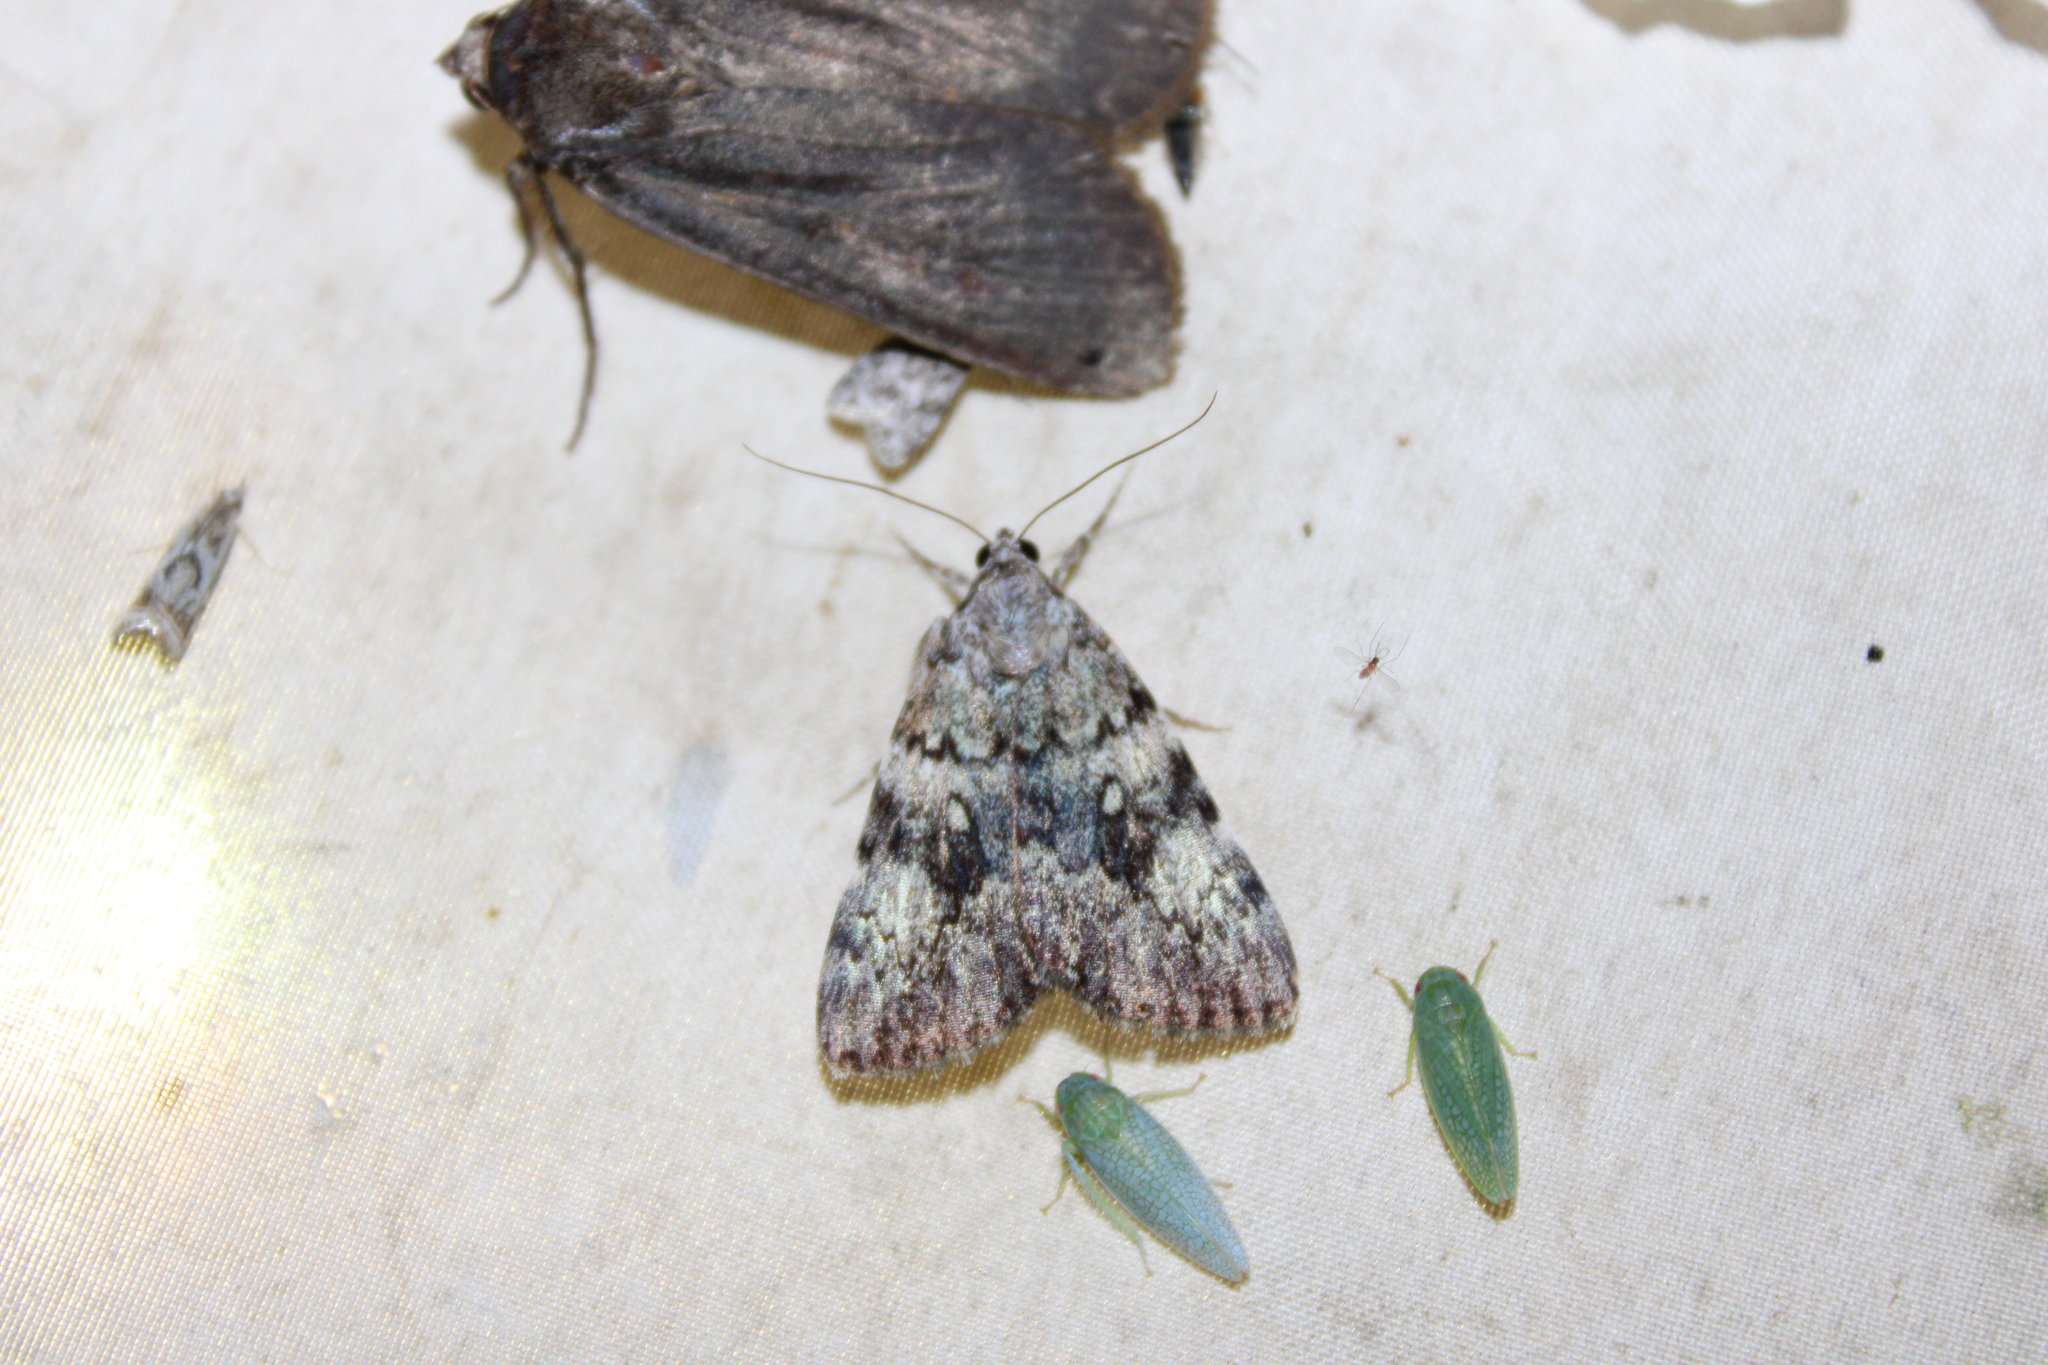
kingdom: Animalia
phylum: Arthropoda
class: Insecta
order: Lepidoptera
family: Erebidae
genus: Catocala
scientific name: Catocala lineella
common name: Little lined underwing
